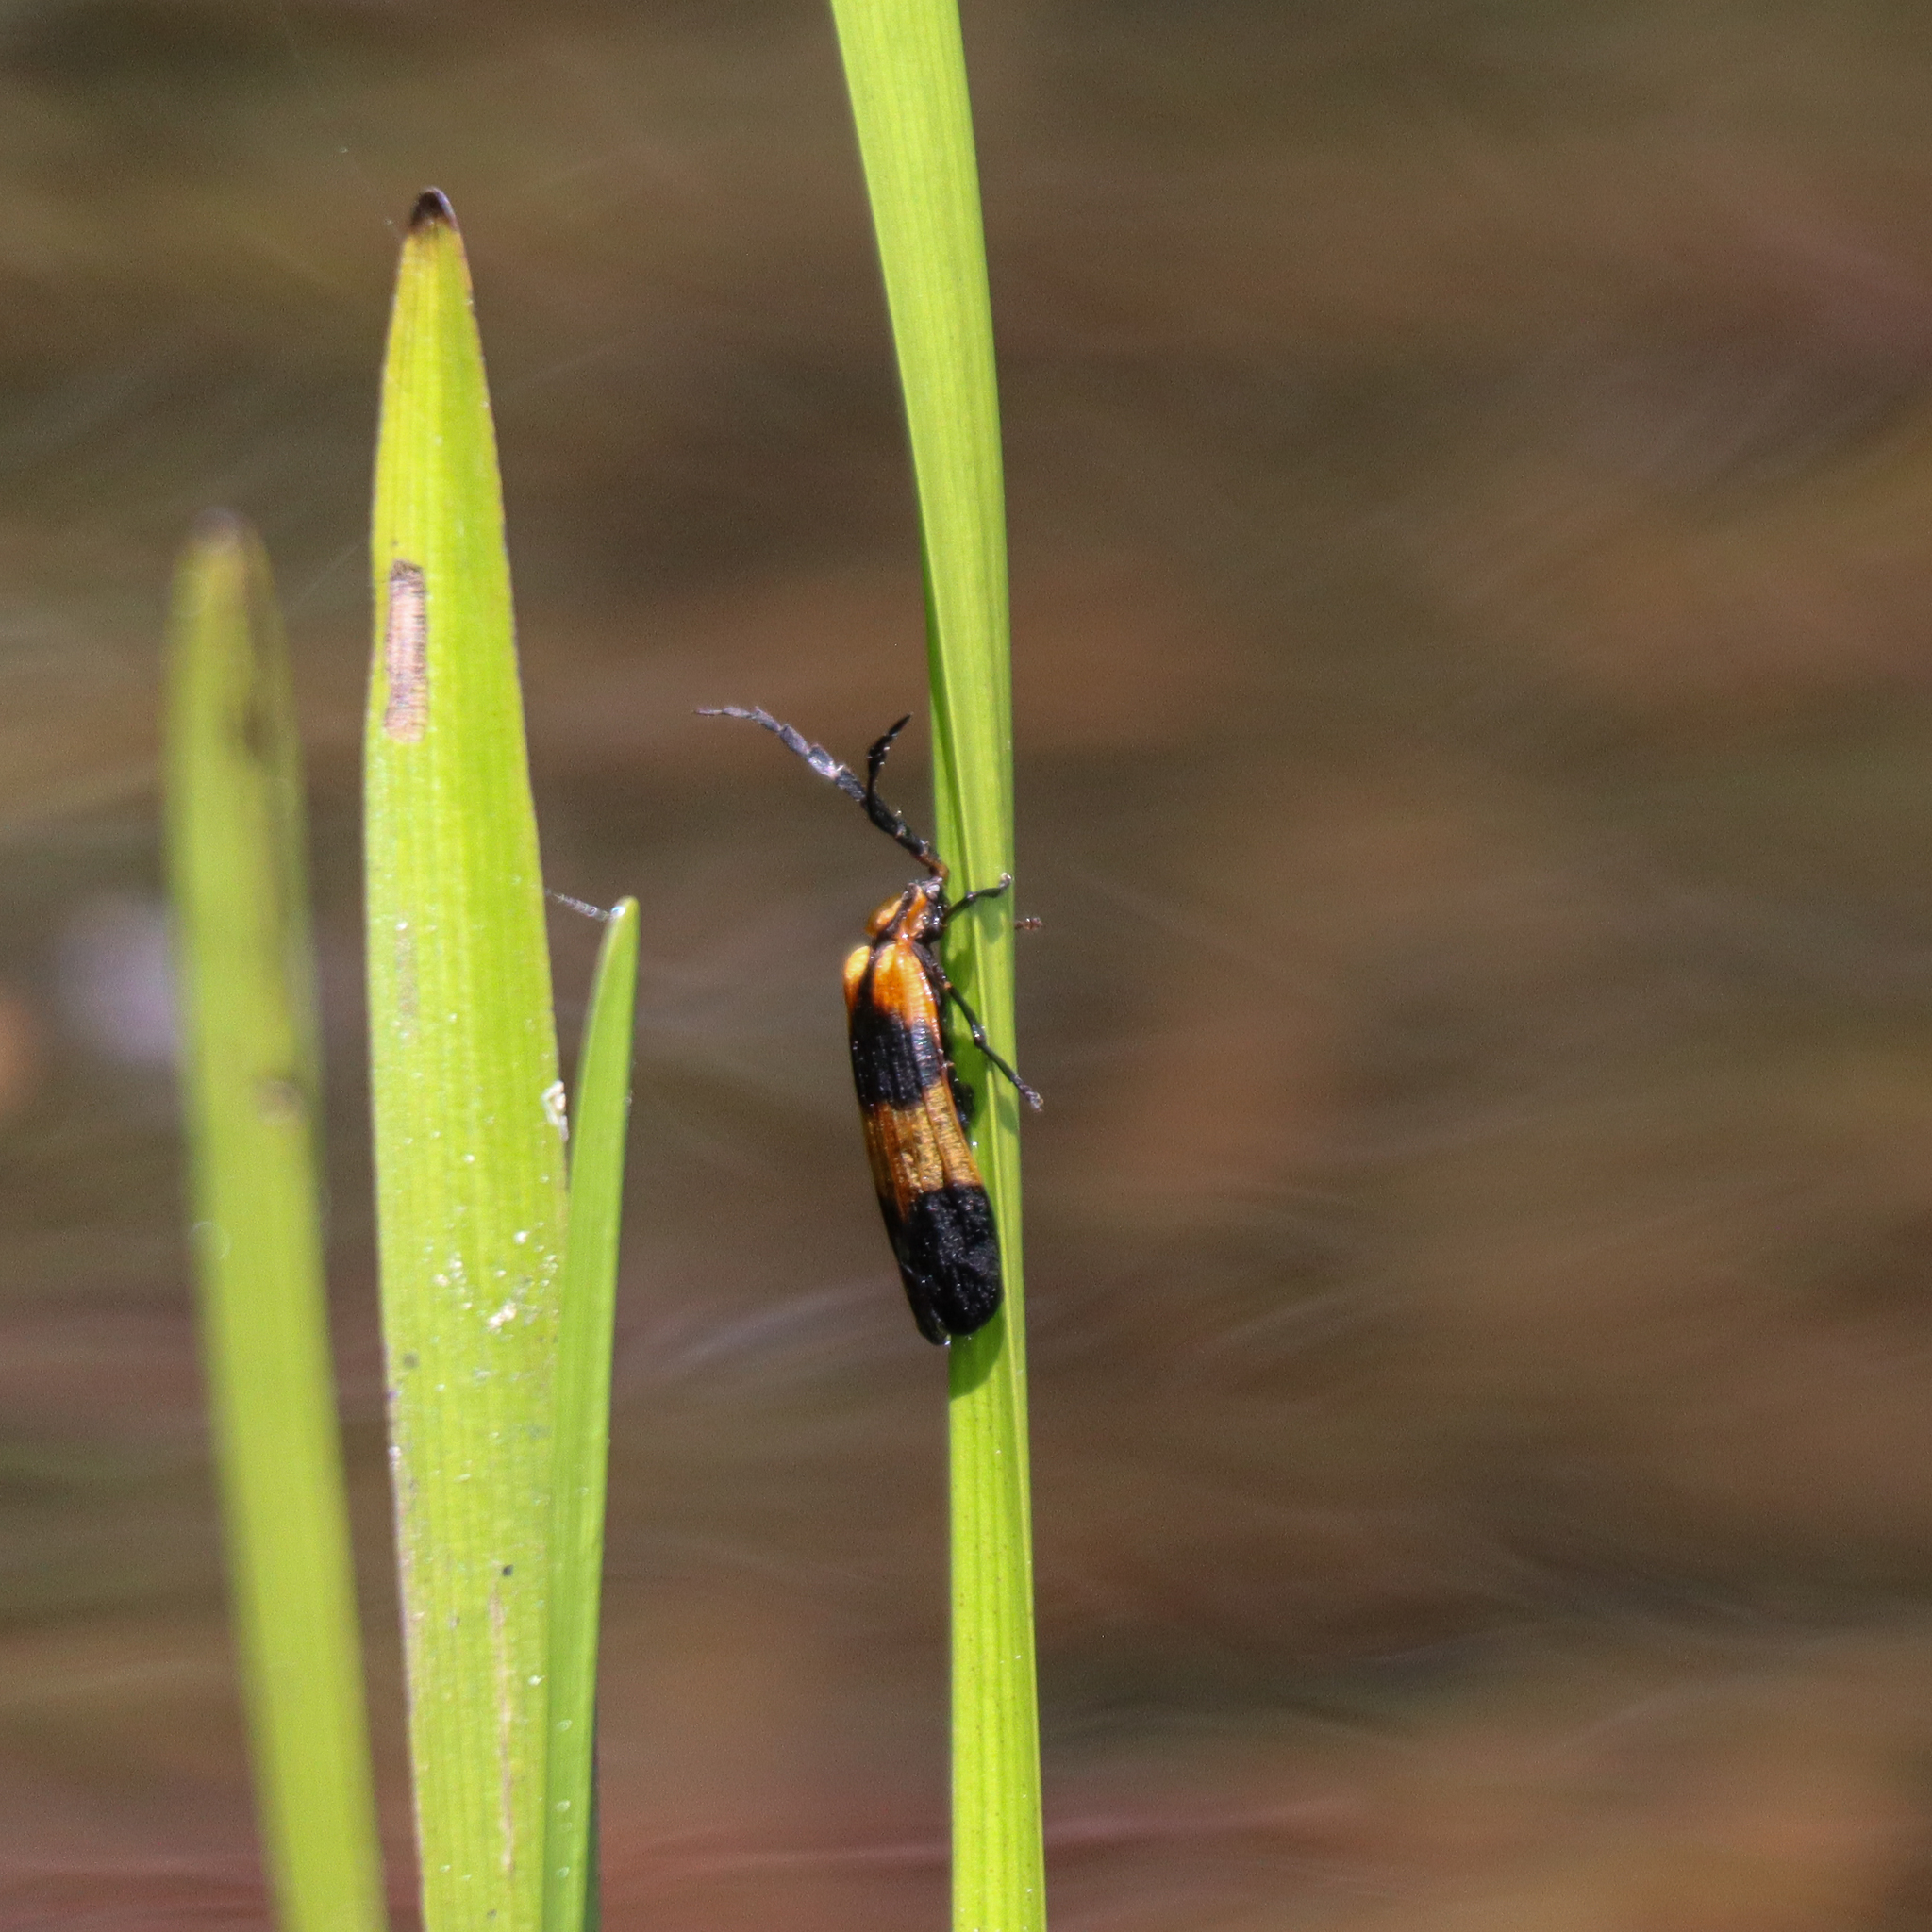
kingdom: Animalia
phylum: Arthropoda
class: Insecta
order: Coleoptera
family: Lycidae
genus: Calopteron
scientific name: Calopteron reticulatum
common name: Banded net-winged beetle
